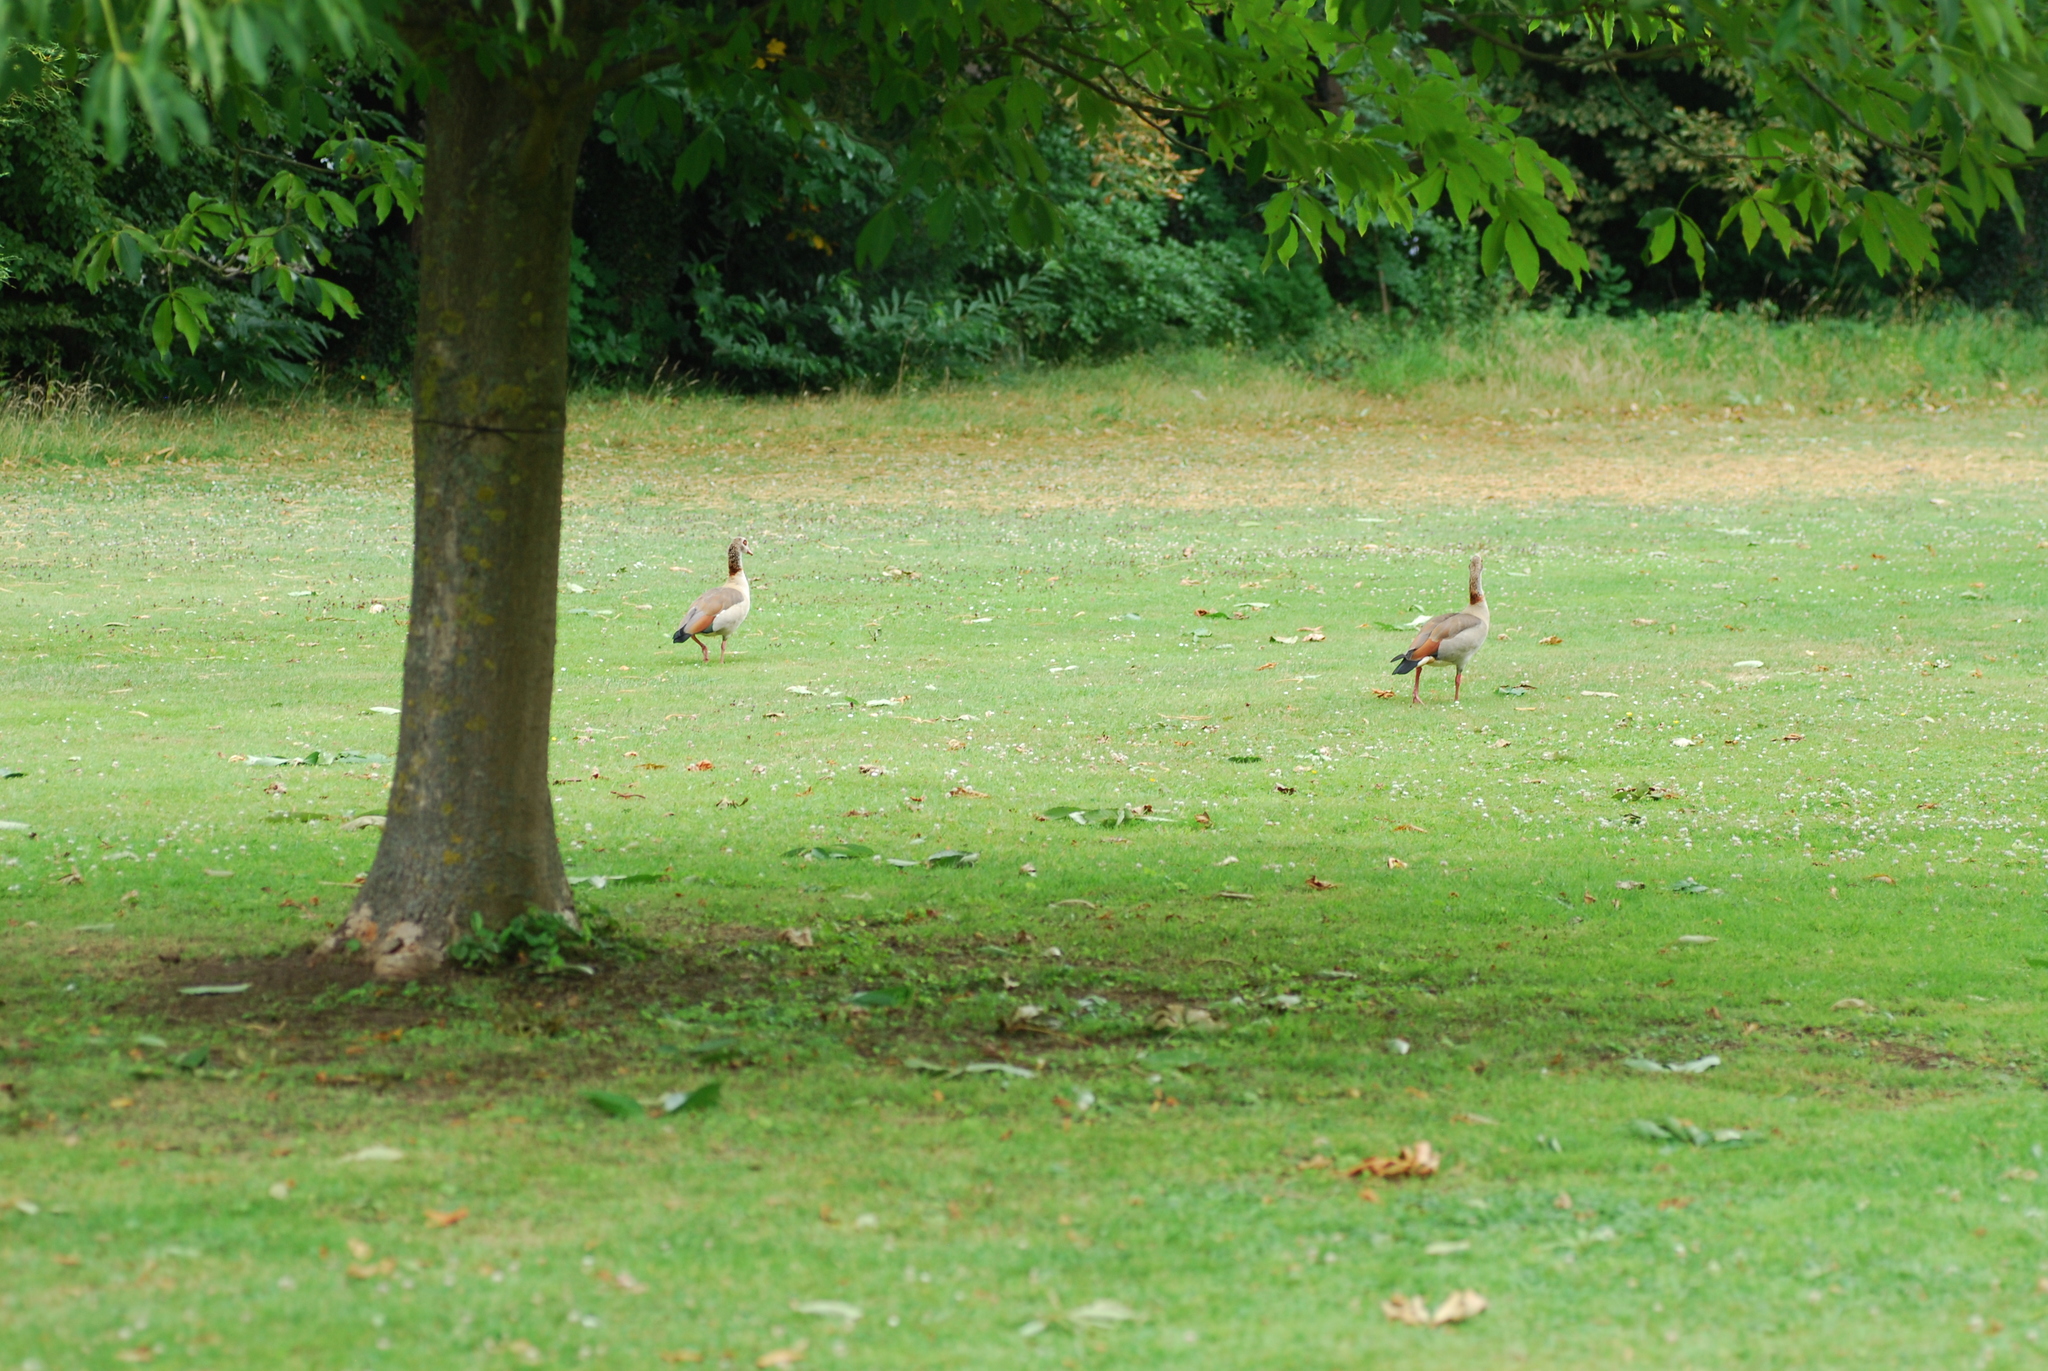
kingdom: Animalia
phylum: Chordata
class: Aves
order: Anseriformes
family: Anatidae
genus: Alopochen
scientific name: Alopochen aegyptiaca
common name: Egyptian goose
